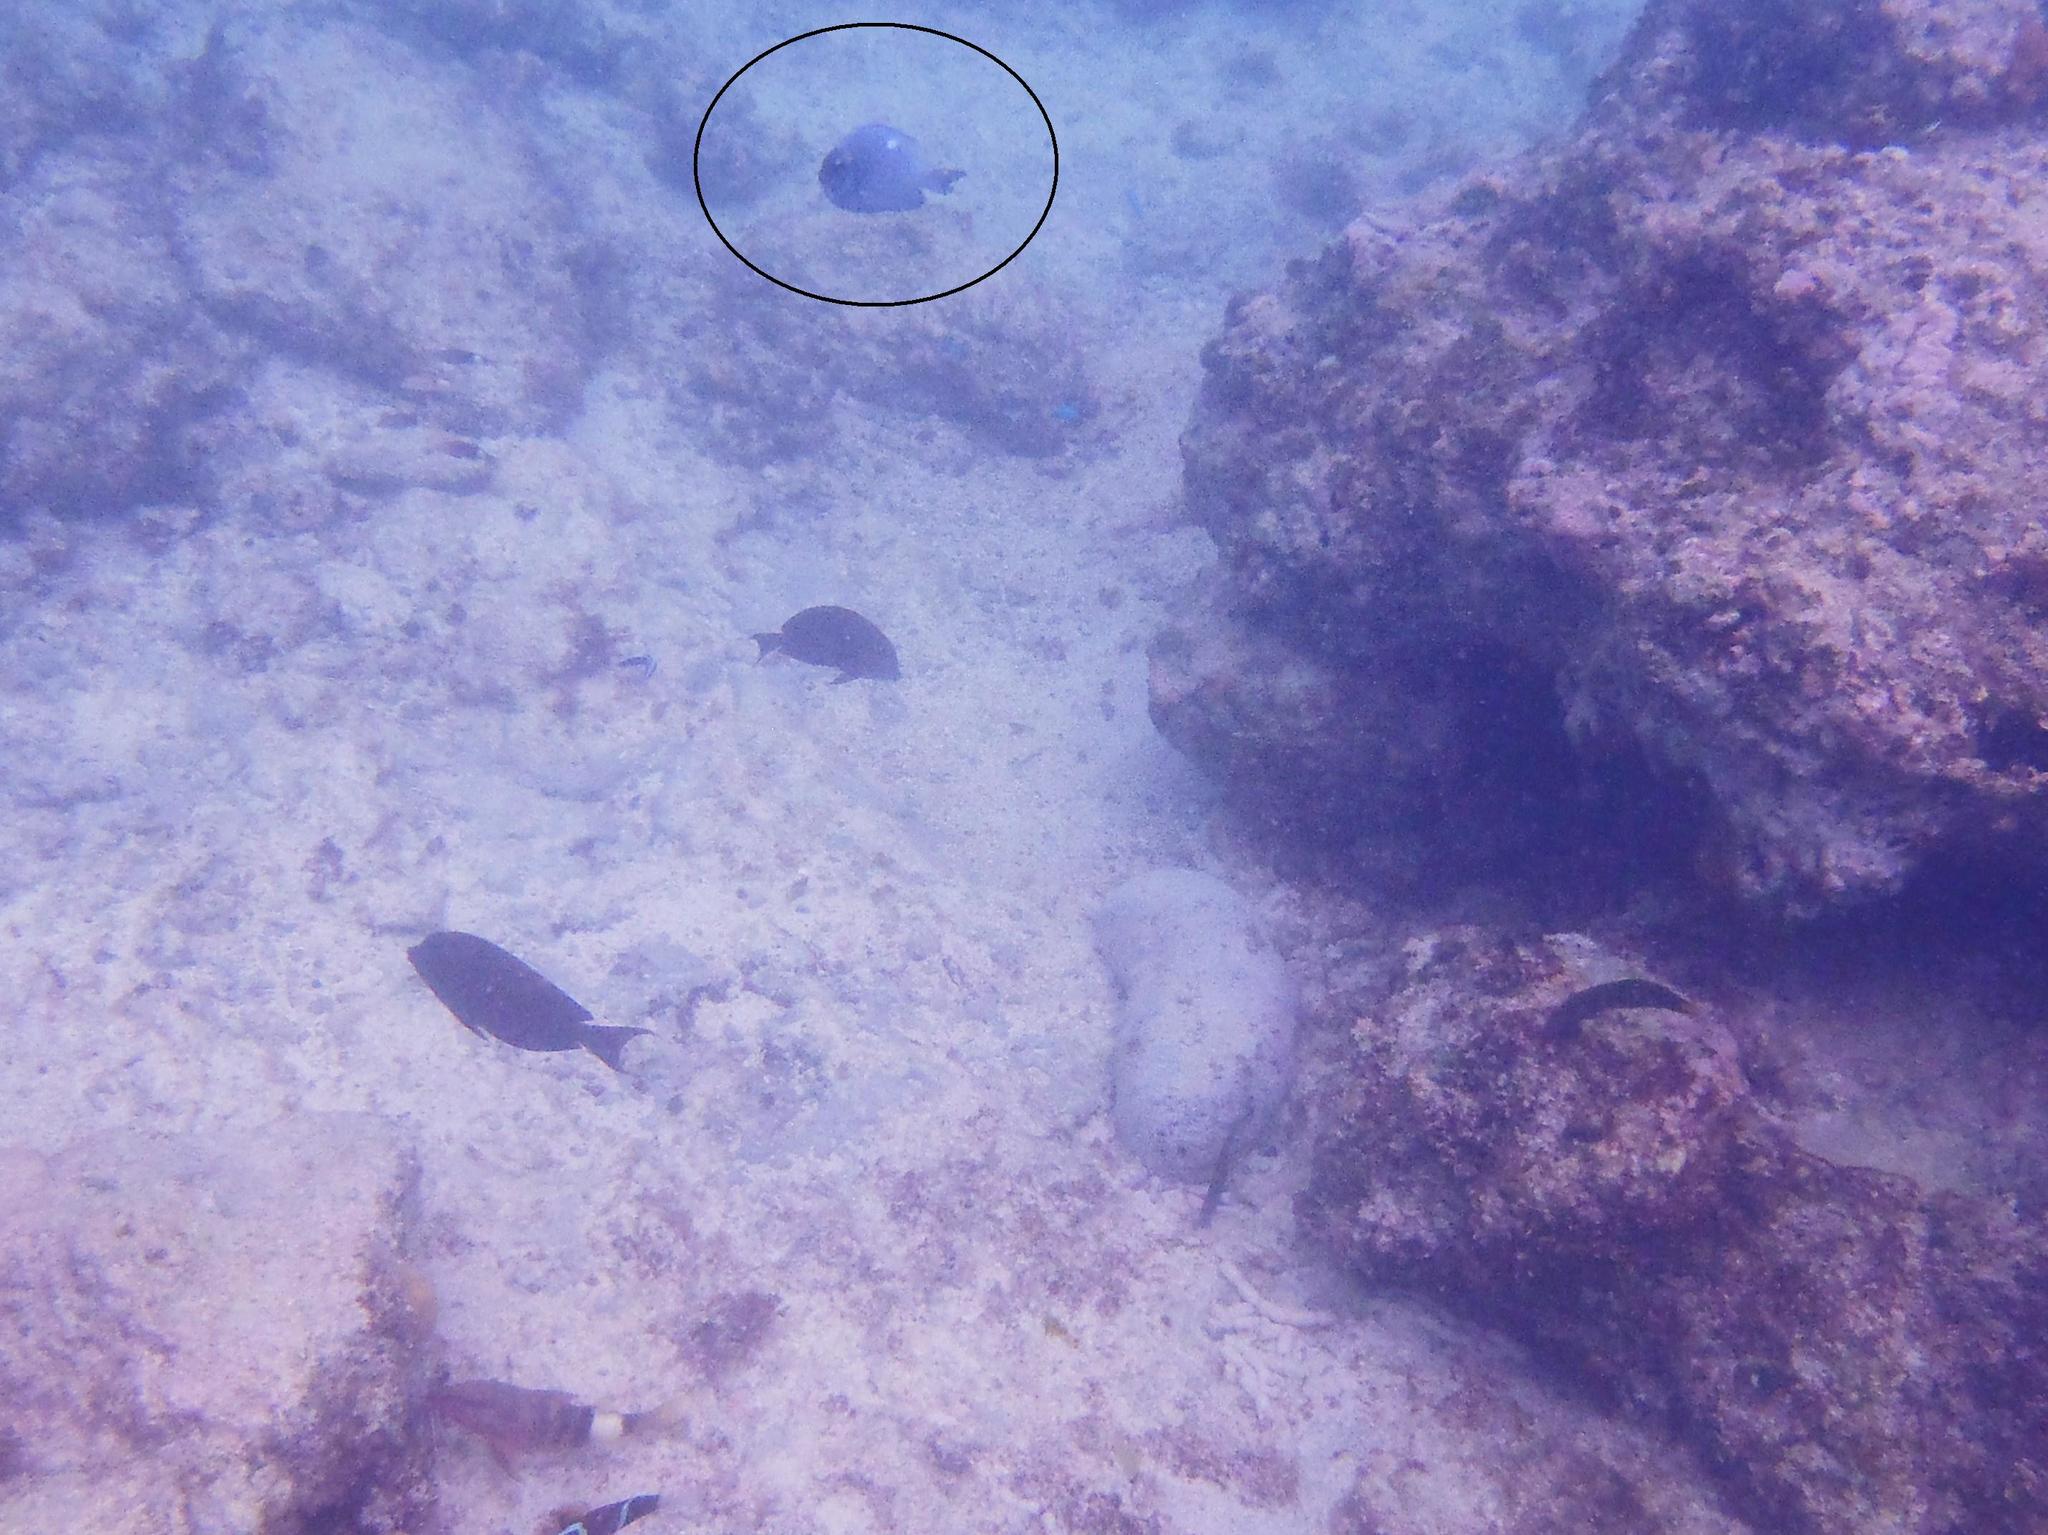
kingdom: Animalia
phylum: Chordata
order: Perciformes
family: Pomacentridae
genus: Dascyllus
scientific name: Dascyllus trimaculatus
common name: Threespot dascyllus
